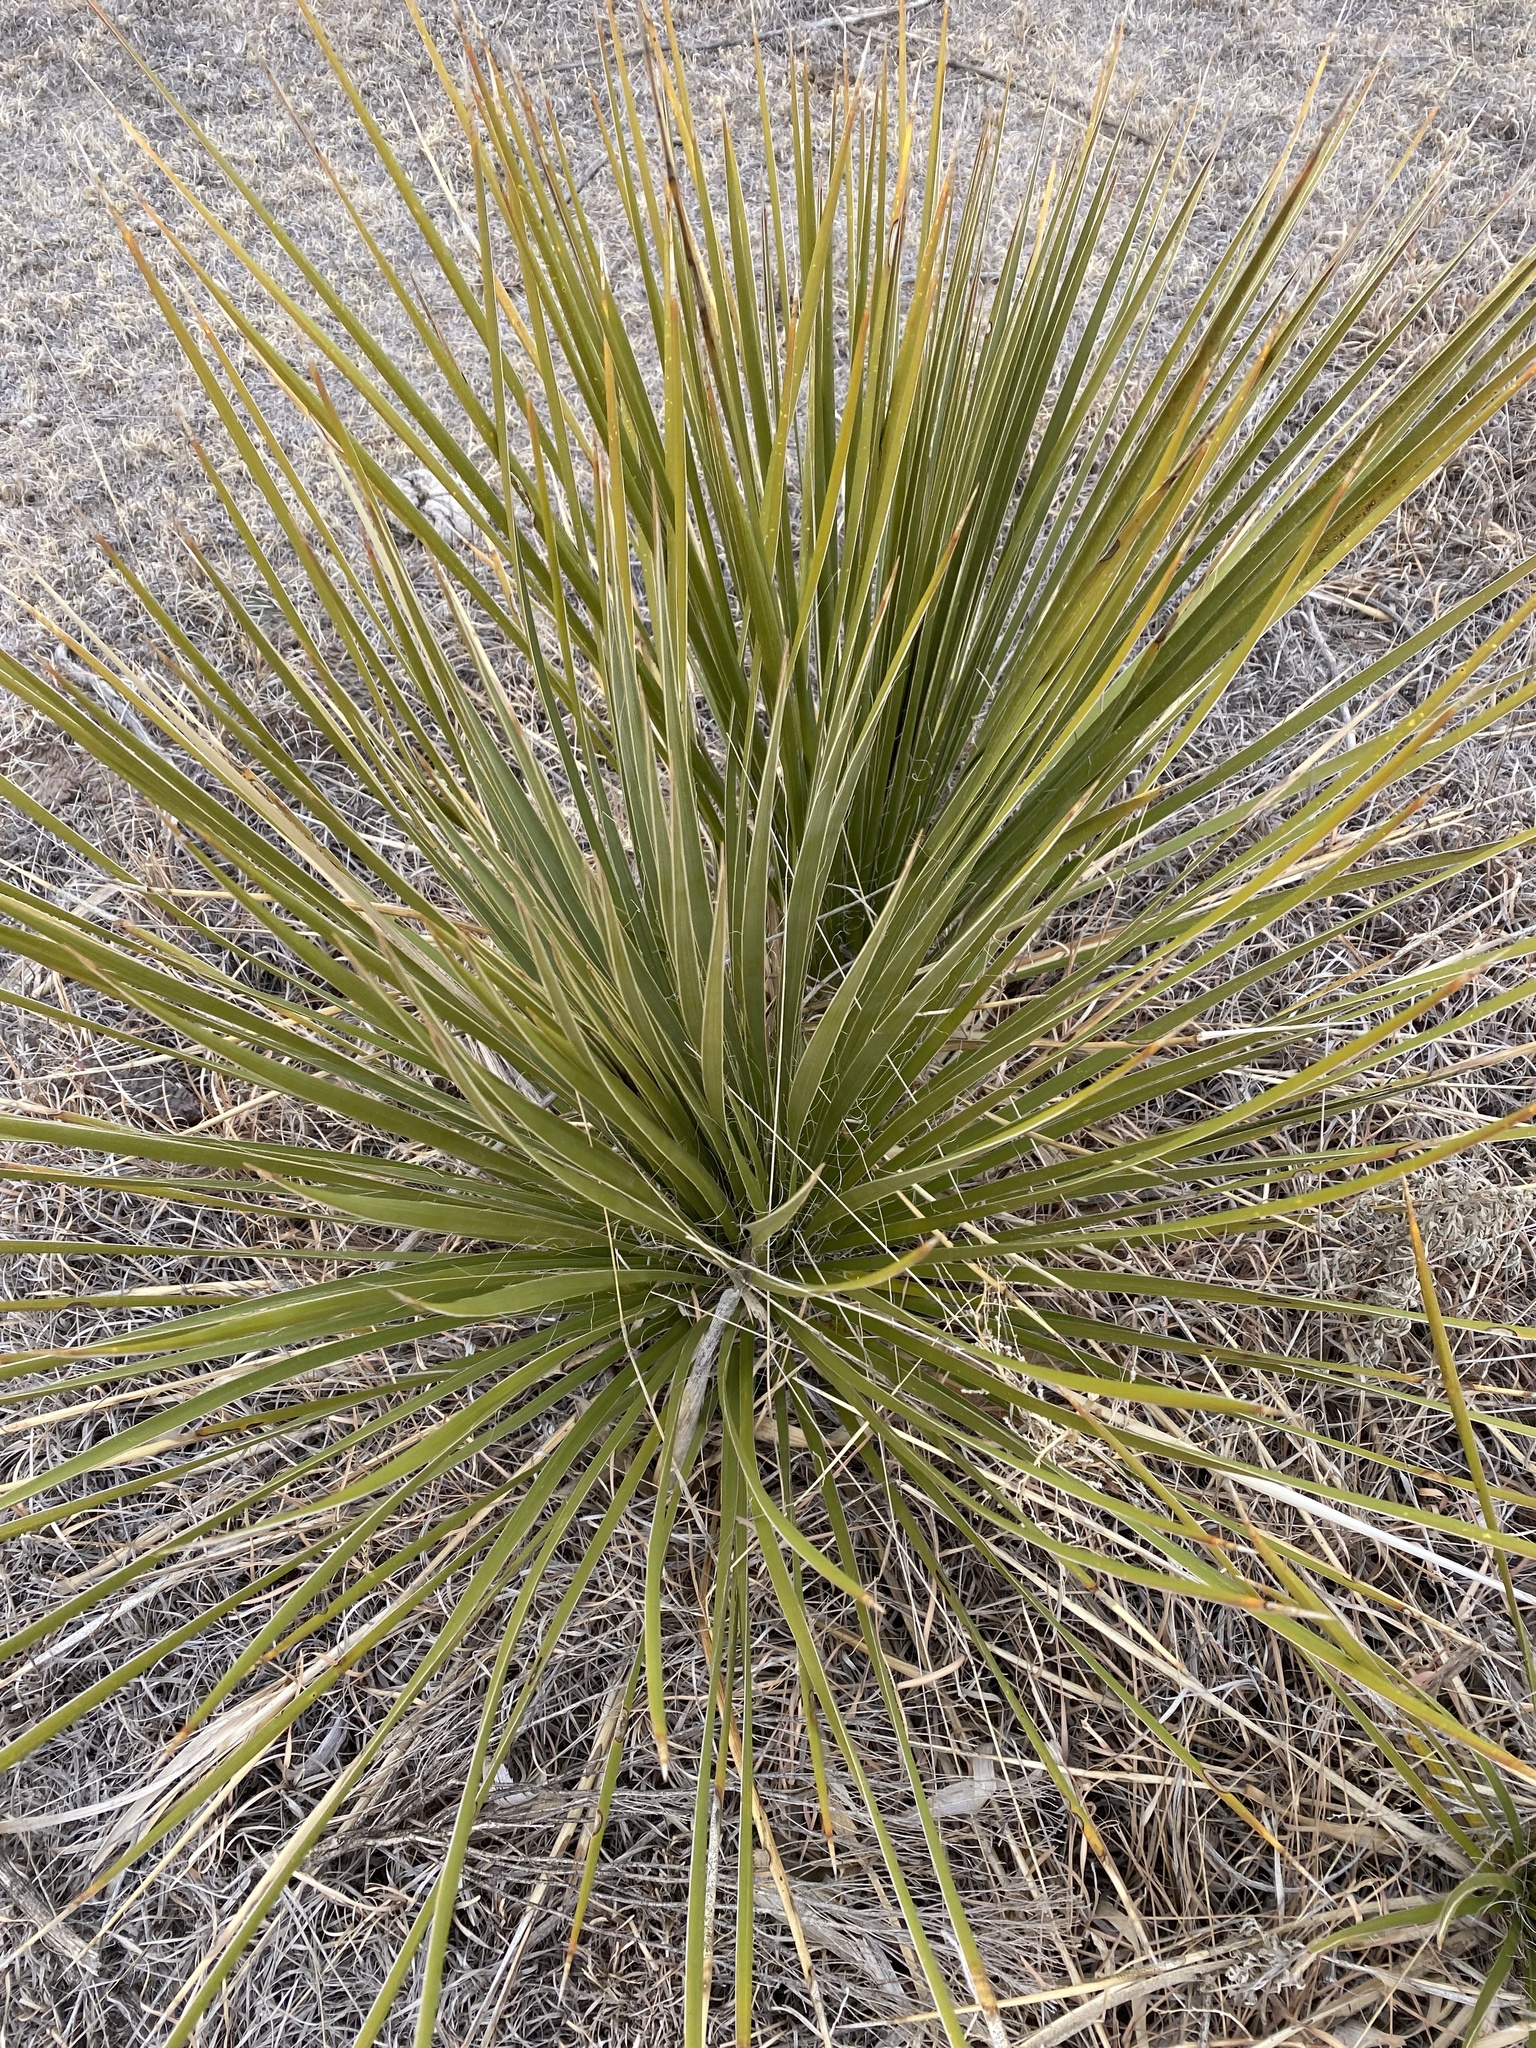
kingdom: Plantae
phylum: Tracheophyta
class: Liliopsida
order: Asparagales
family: Asparagaceae
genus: Yucca
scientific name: Yucca glauca
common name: Great plains yucca
